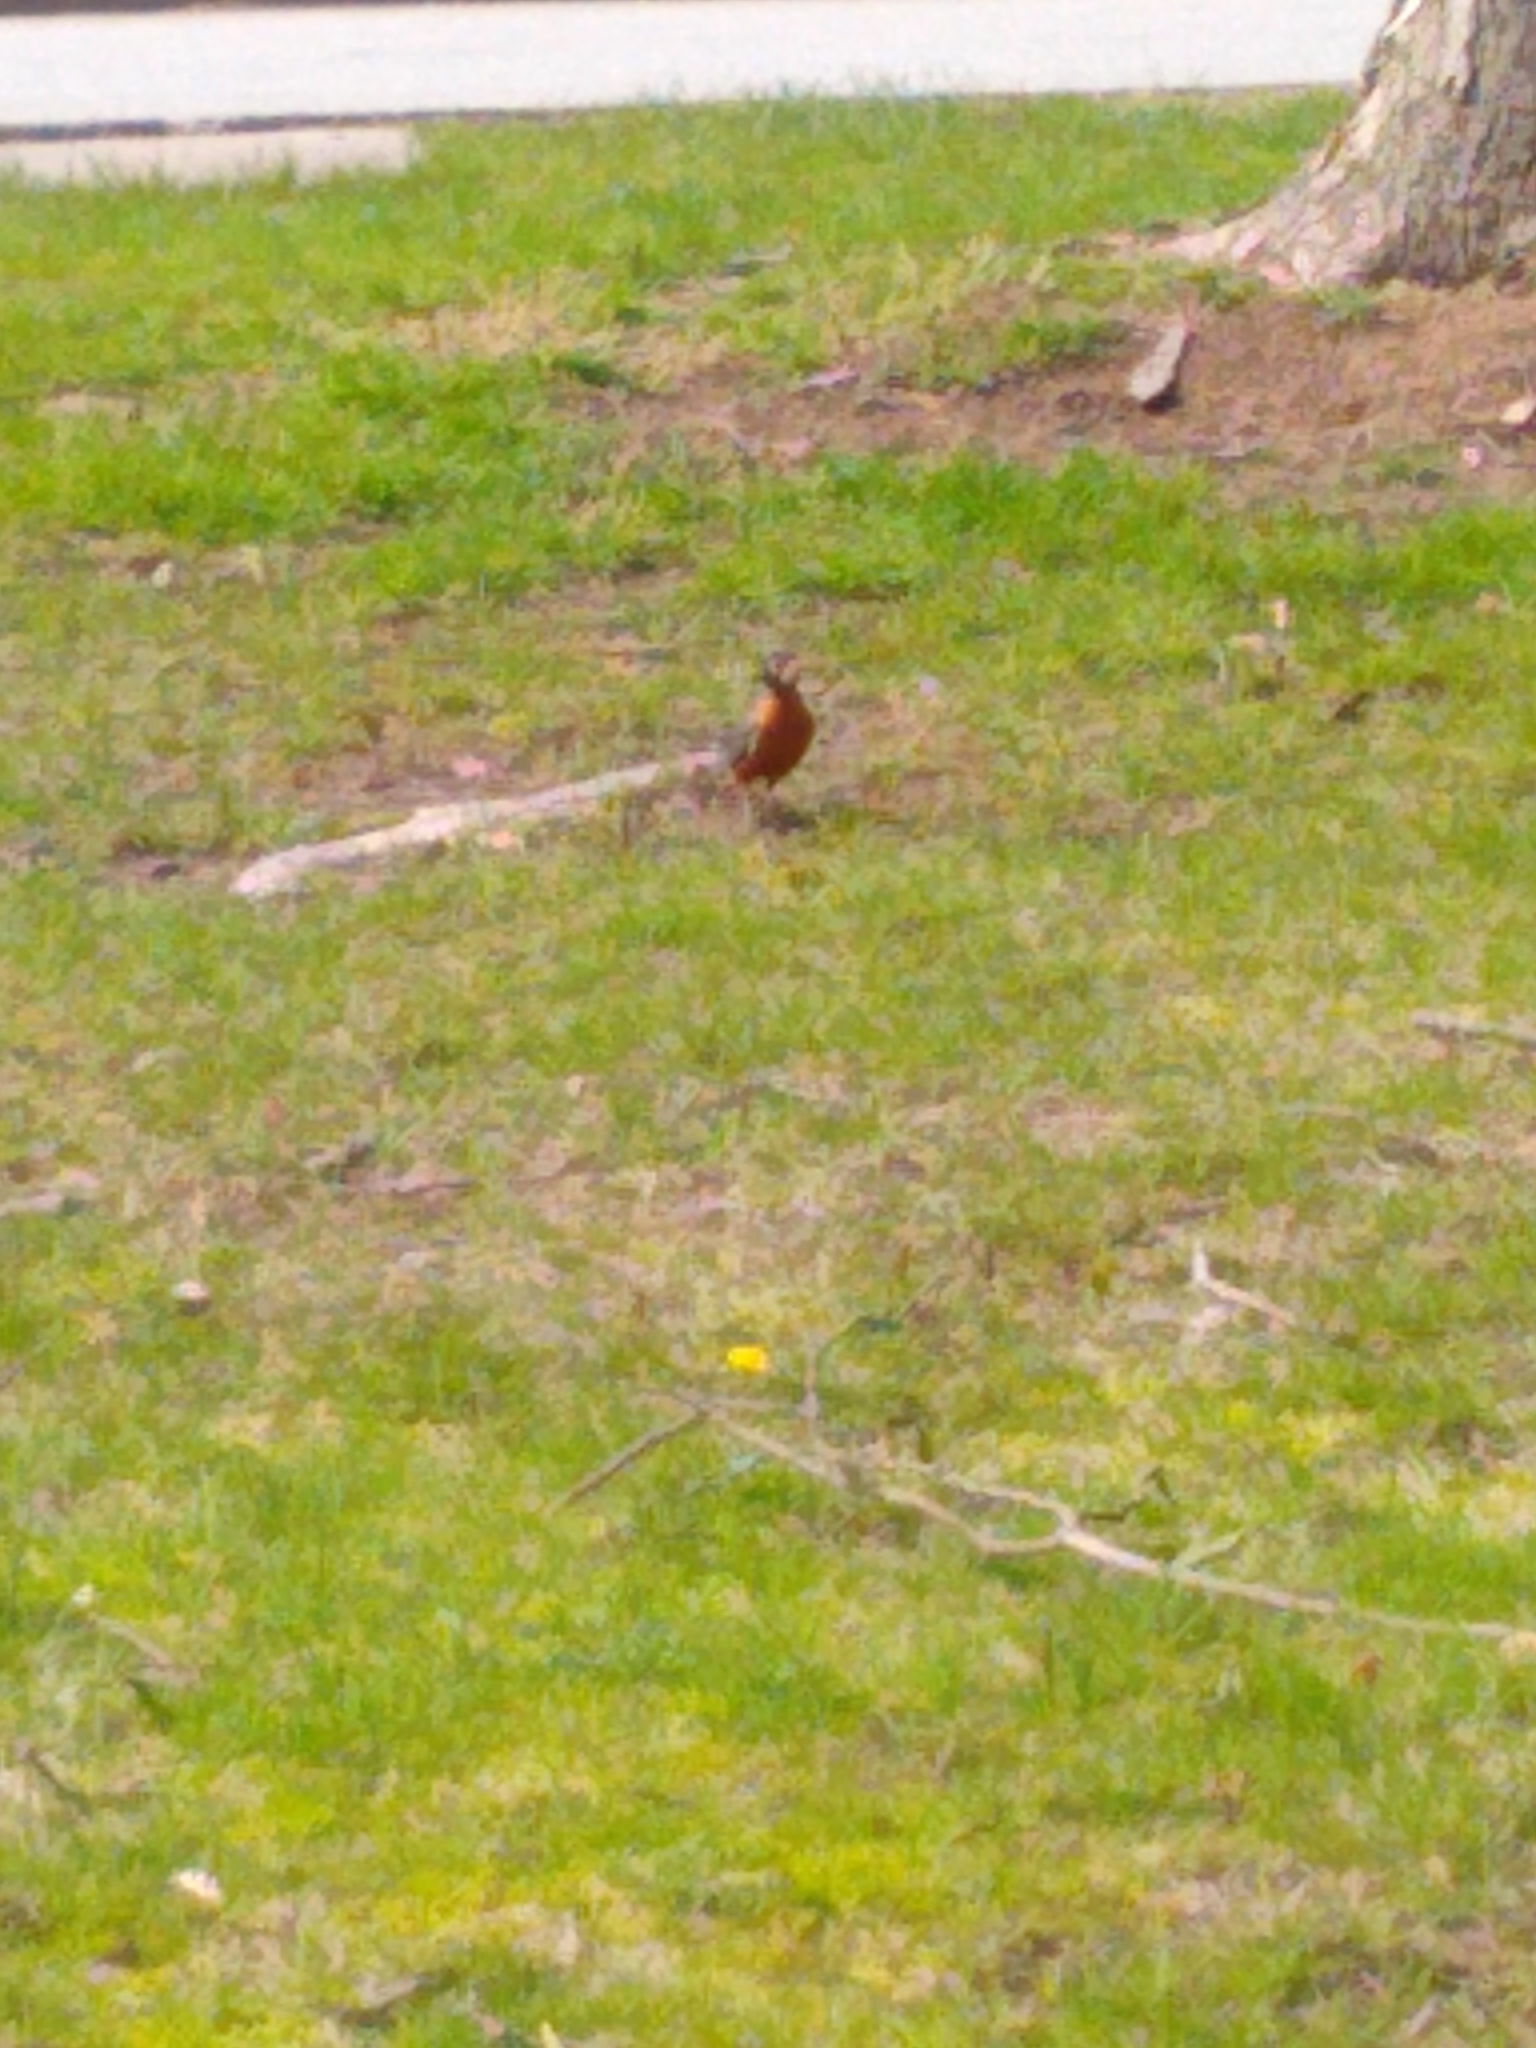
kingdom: Animalia
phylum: Chordata
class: Aves
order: Passeriformes
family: Turdidae
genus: Turdus
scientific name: Turdus migratorius
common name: American robin
